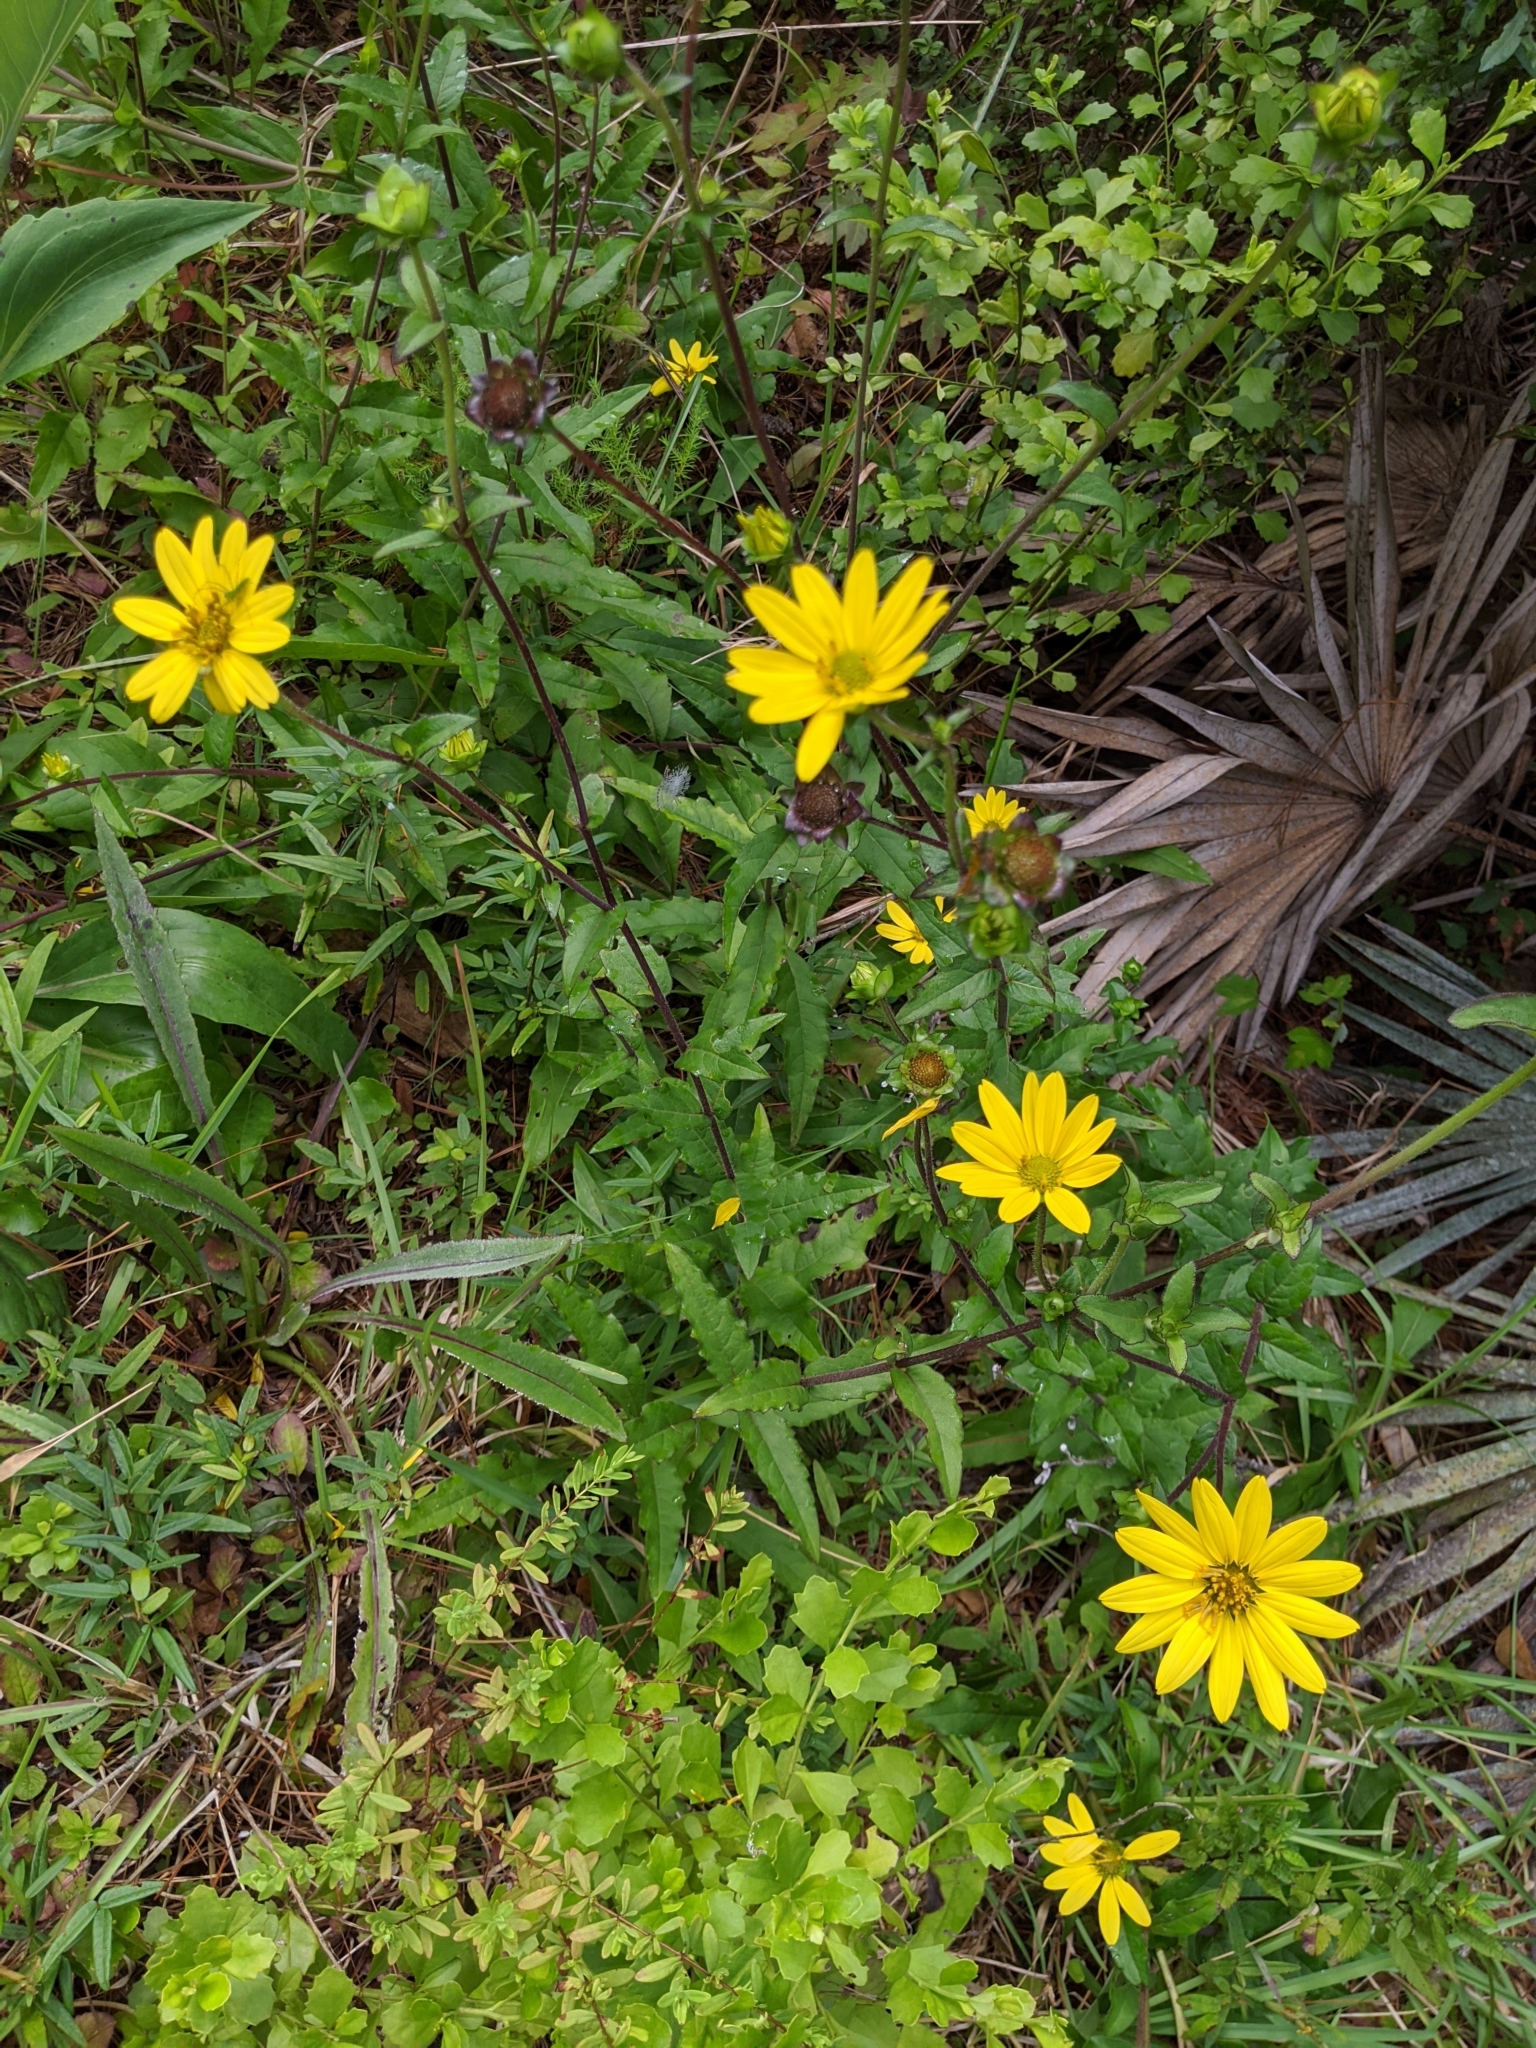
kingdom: Plantae
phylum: Tracheophyta
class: Magnoliopsida
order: Asterales
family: Asteraceae
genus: Silphium
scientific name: Silphium asteriscus
